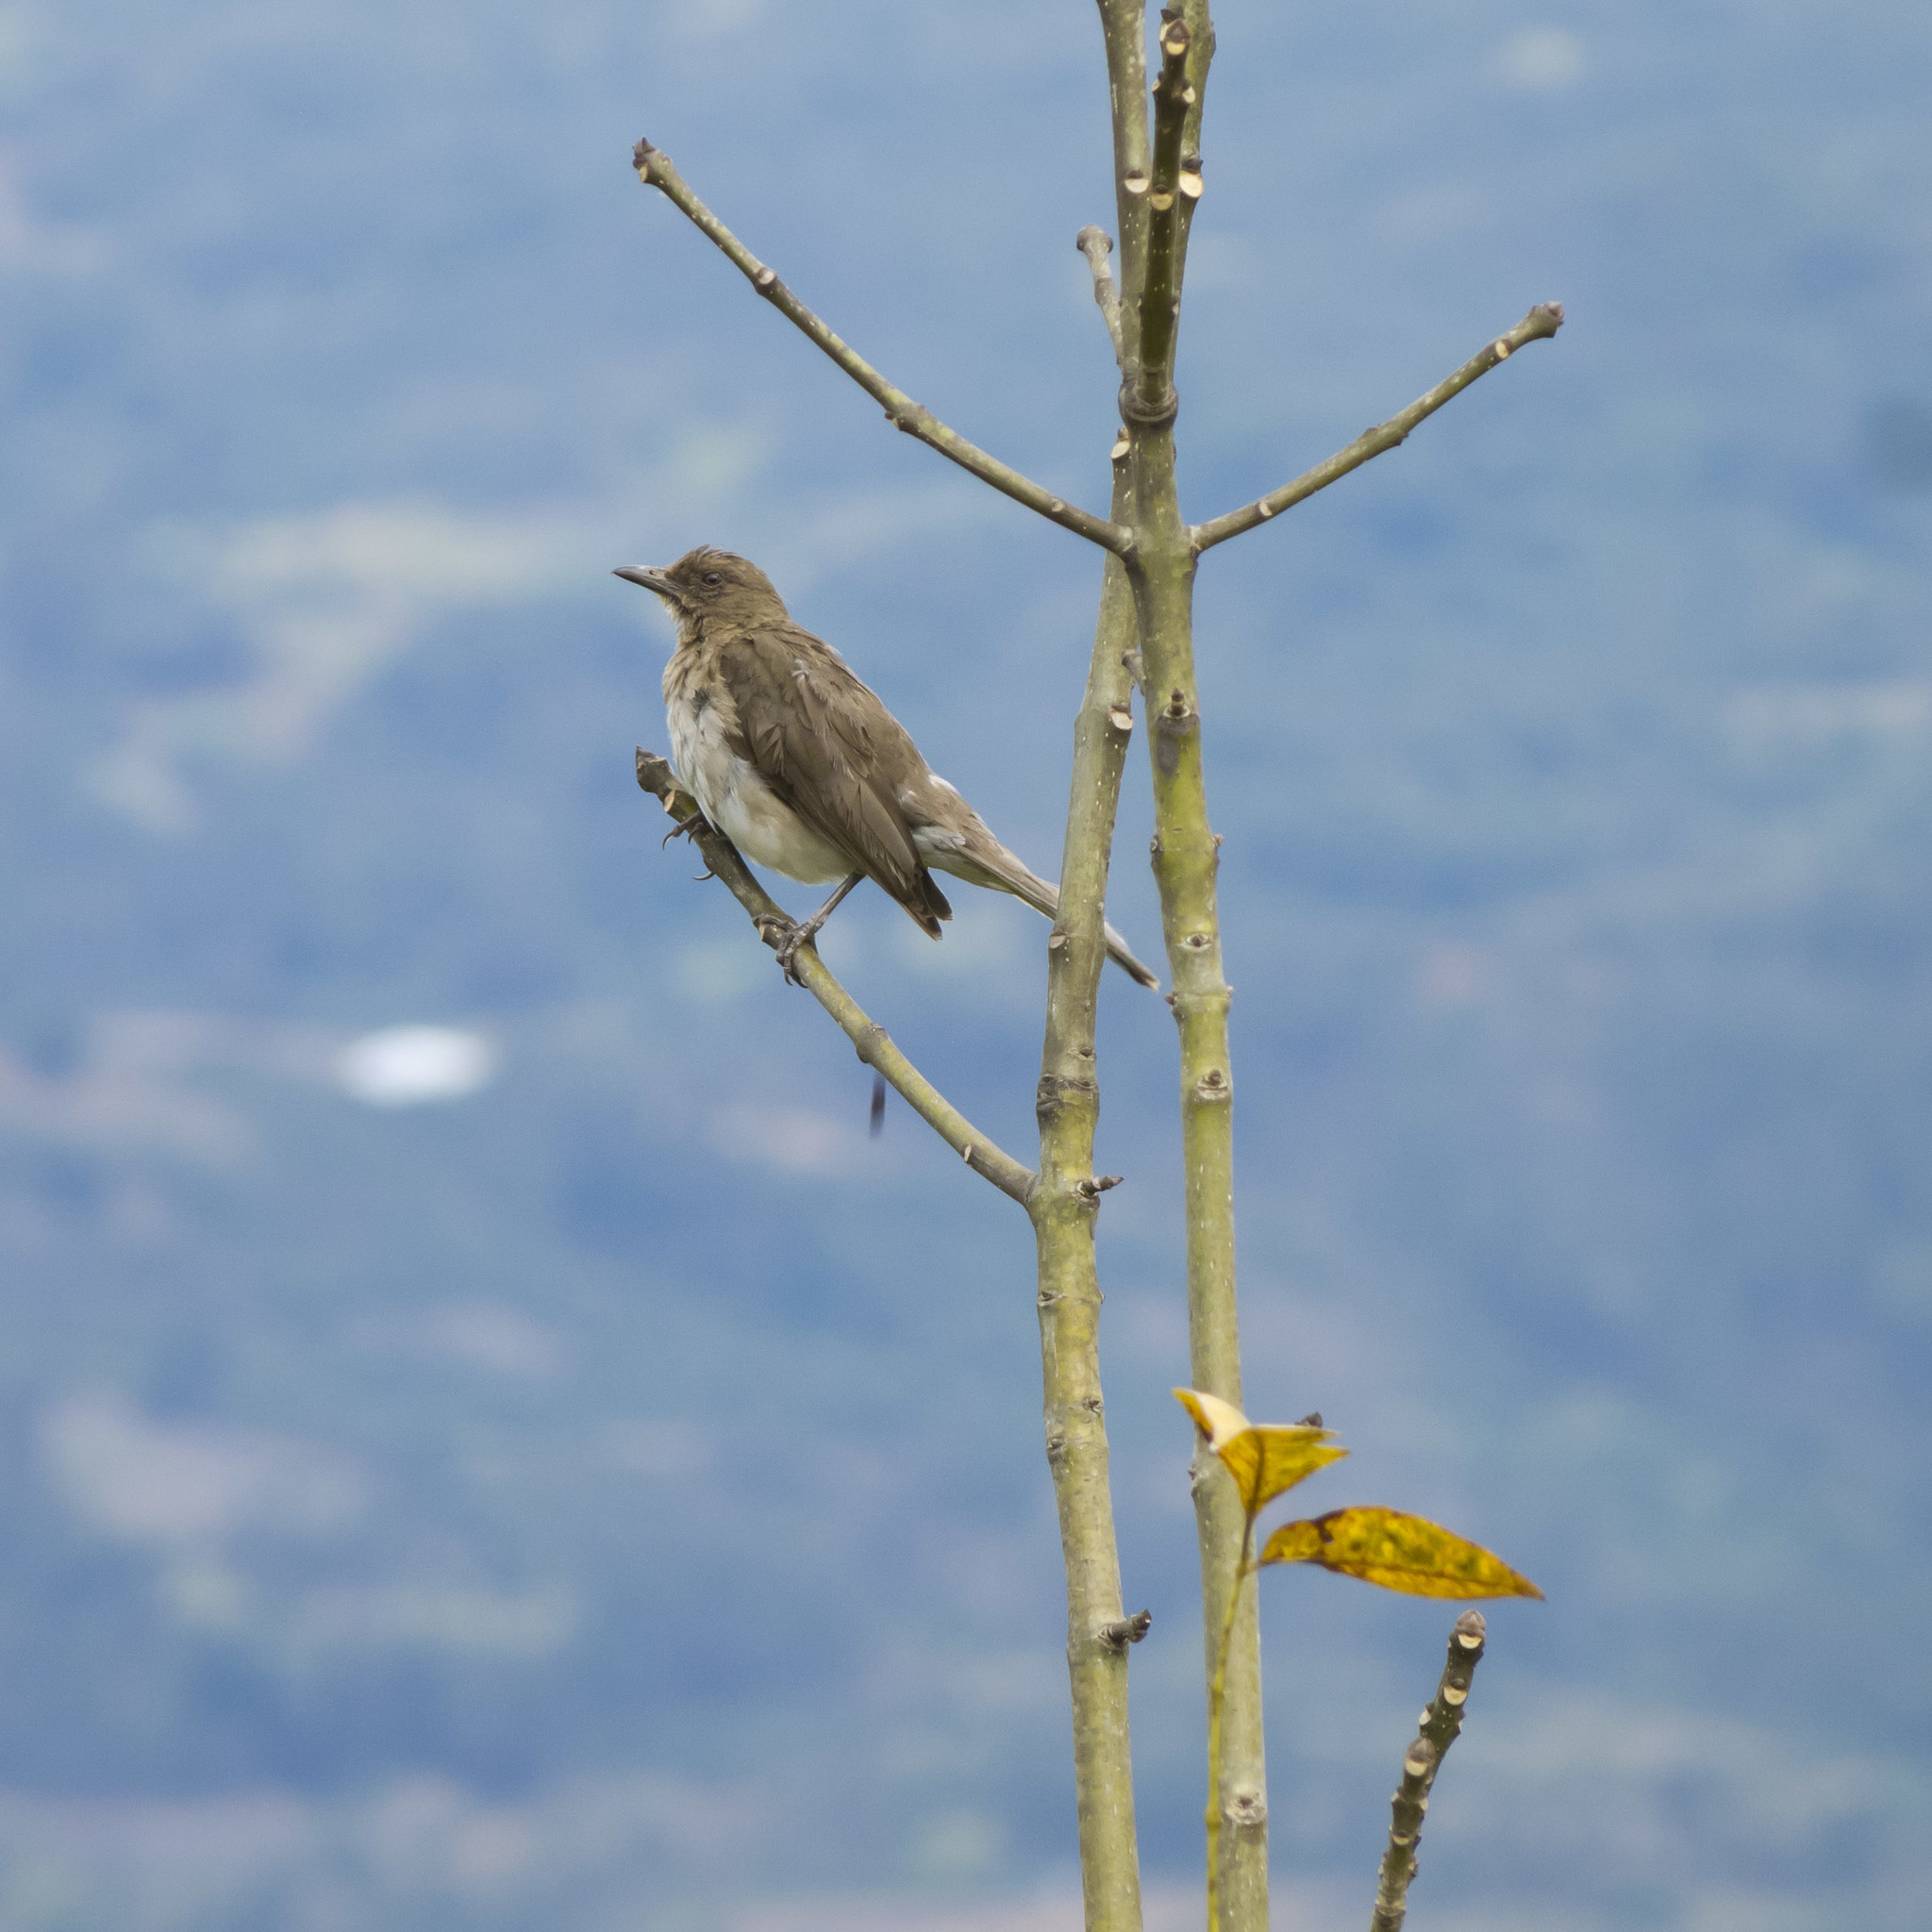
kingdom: Animalia
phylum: Chordata
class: Aves
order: Passeriformes
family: Turdidae
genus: Turdus
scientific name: Turdus ignobilis
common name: Black-billed thrush
